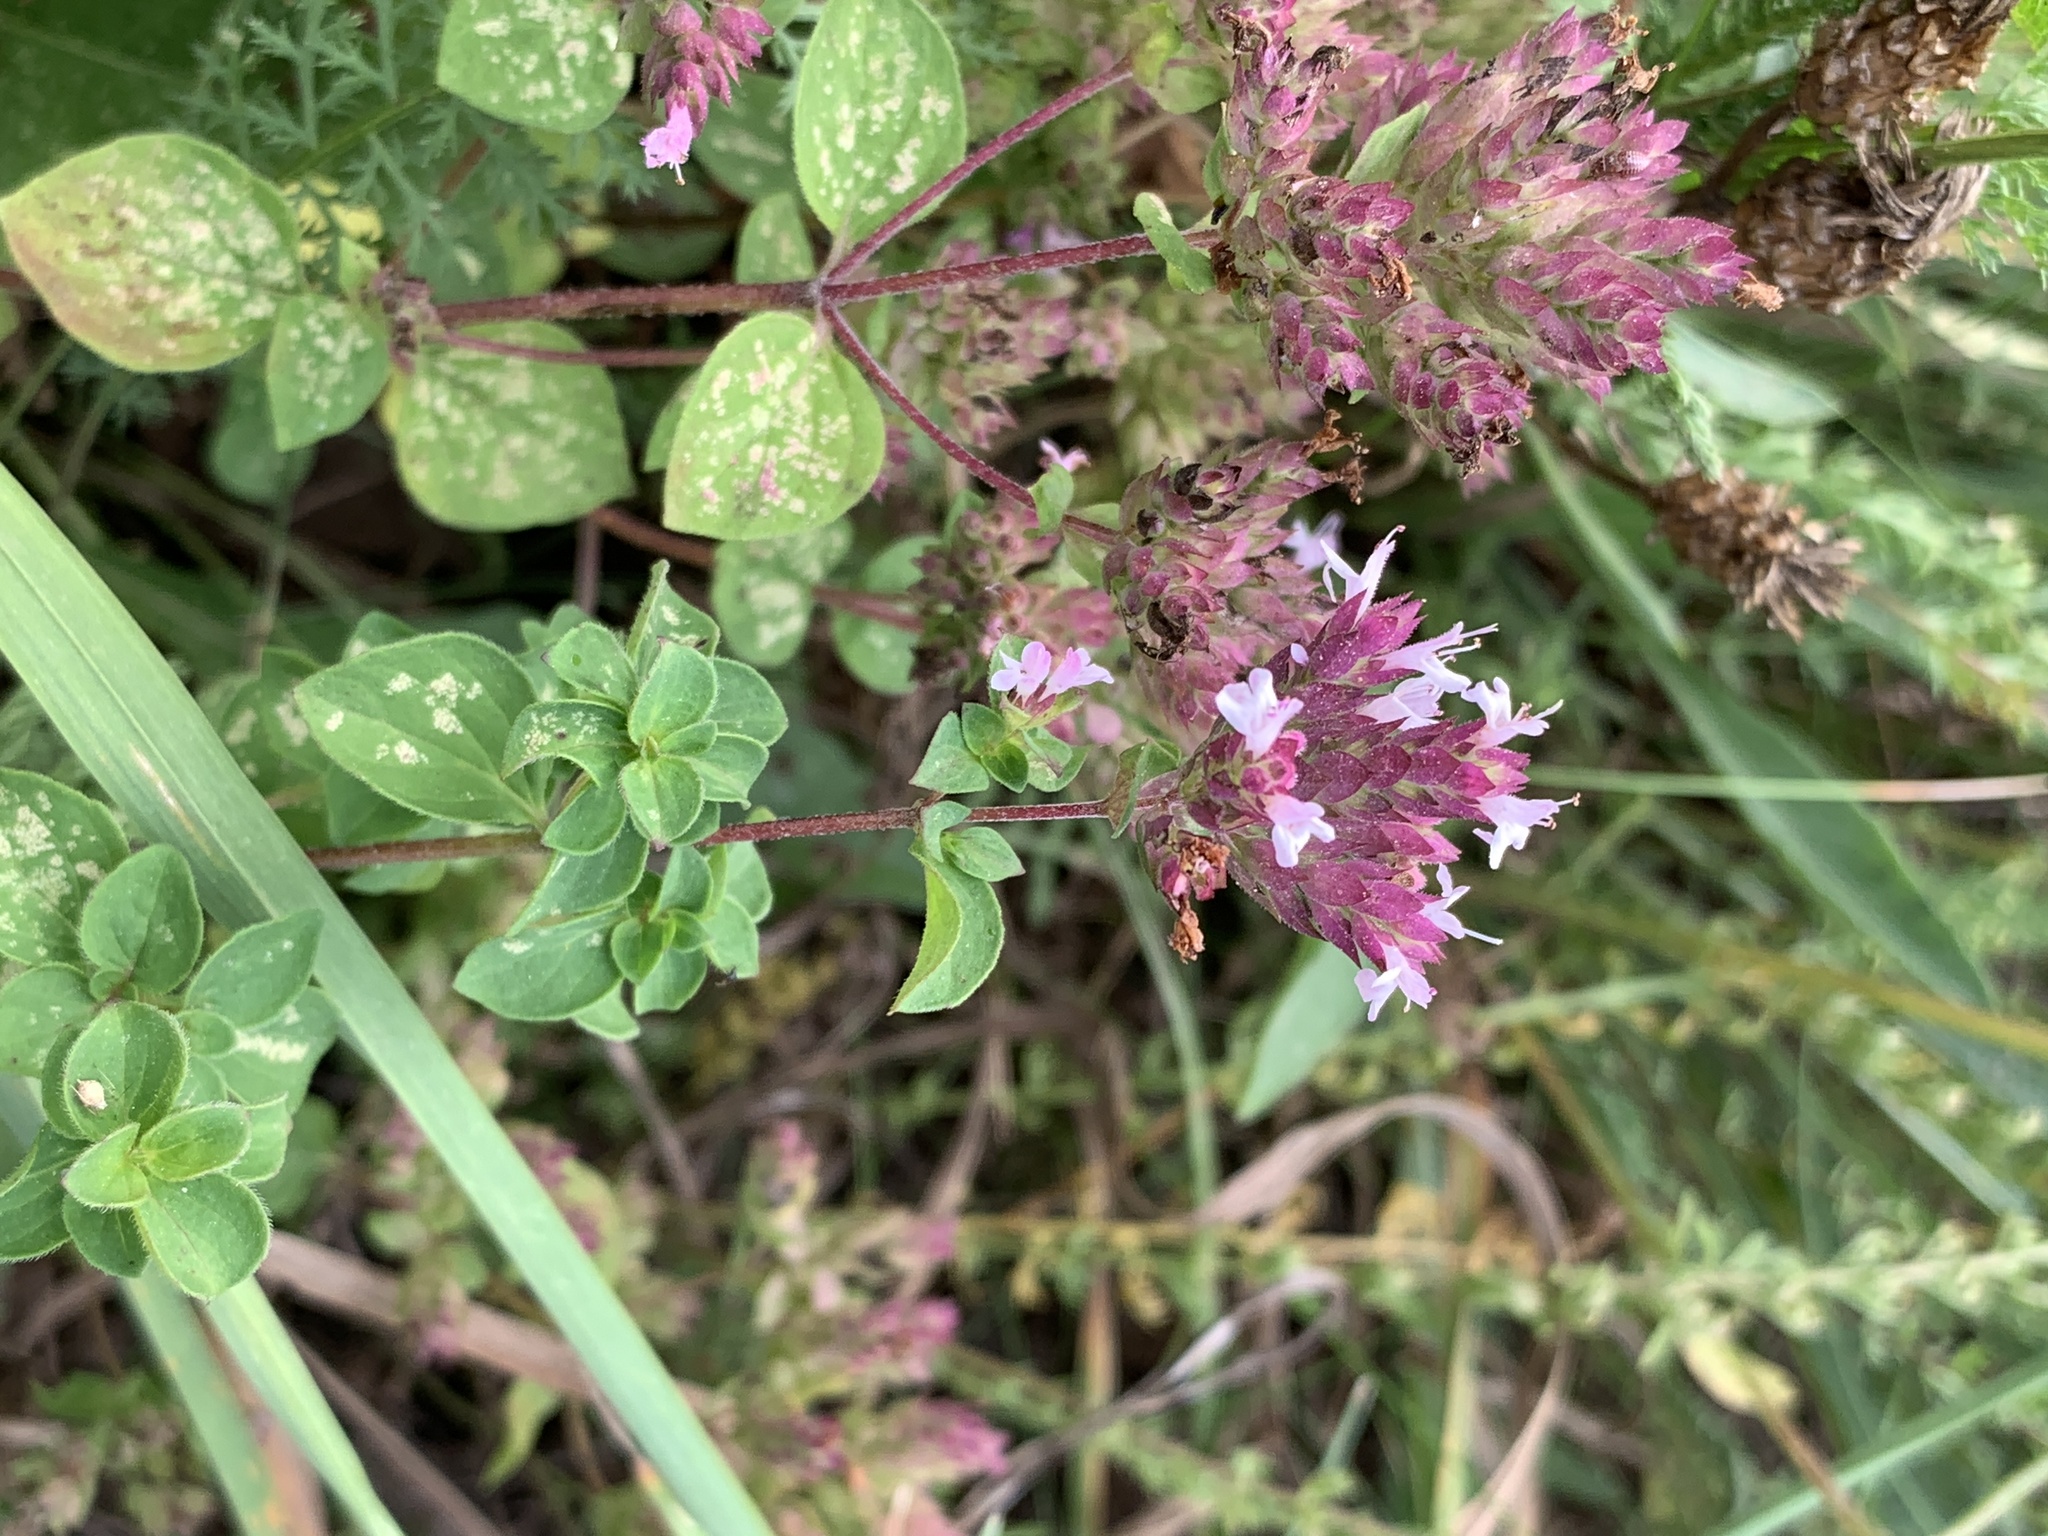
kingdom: Plantae
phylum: Tracheophyta
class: Magnoliopsida
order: Lamiales
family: Lamiaceae
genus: Origanum
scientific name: Origanum vulgare
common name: Wild marjoram
